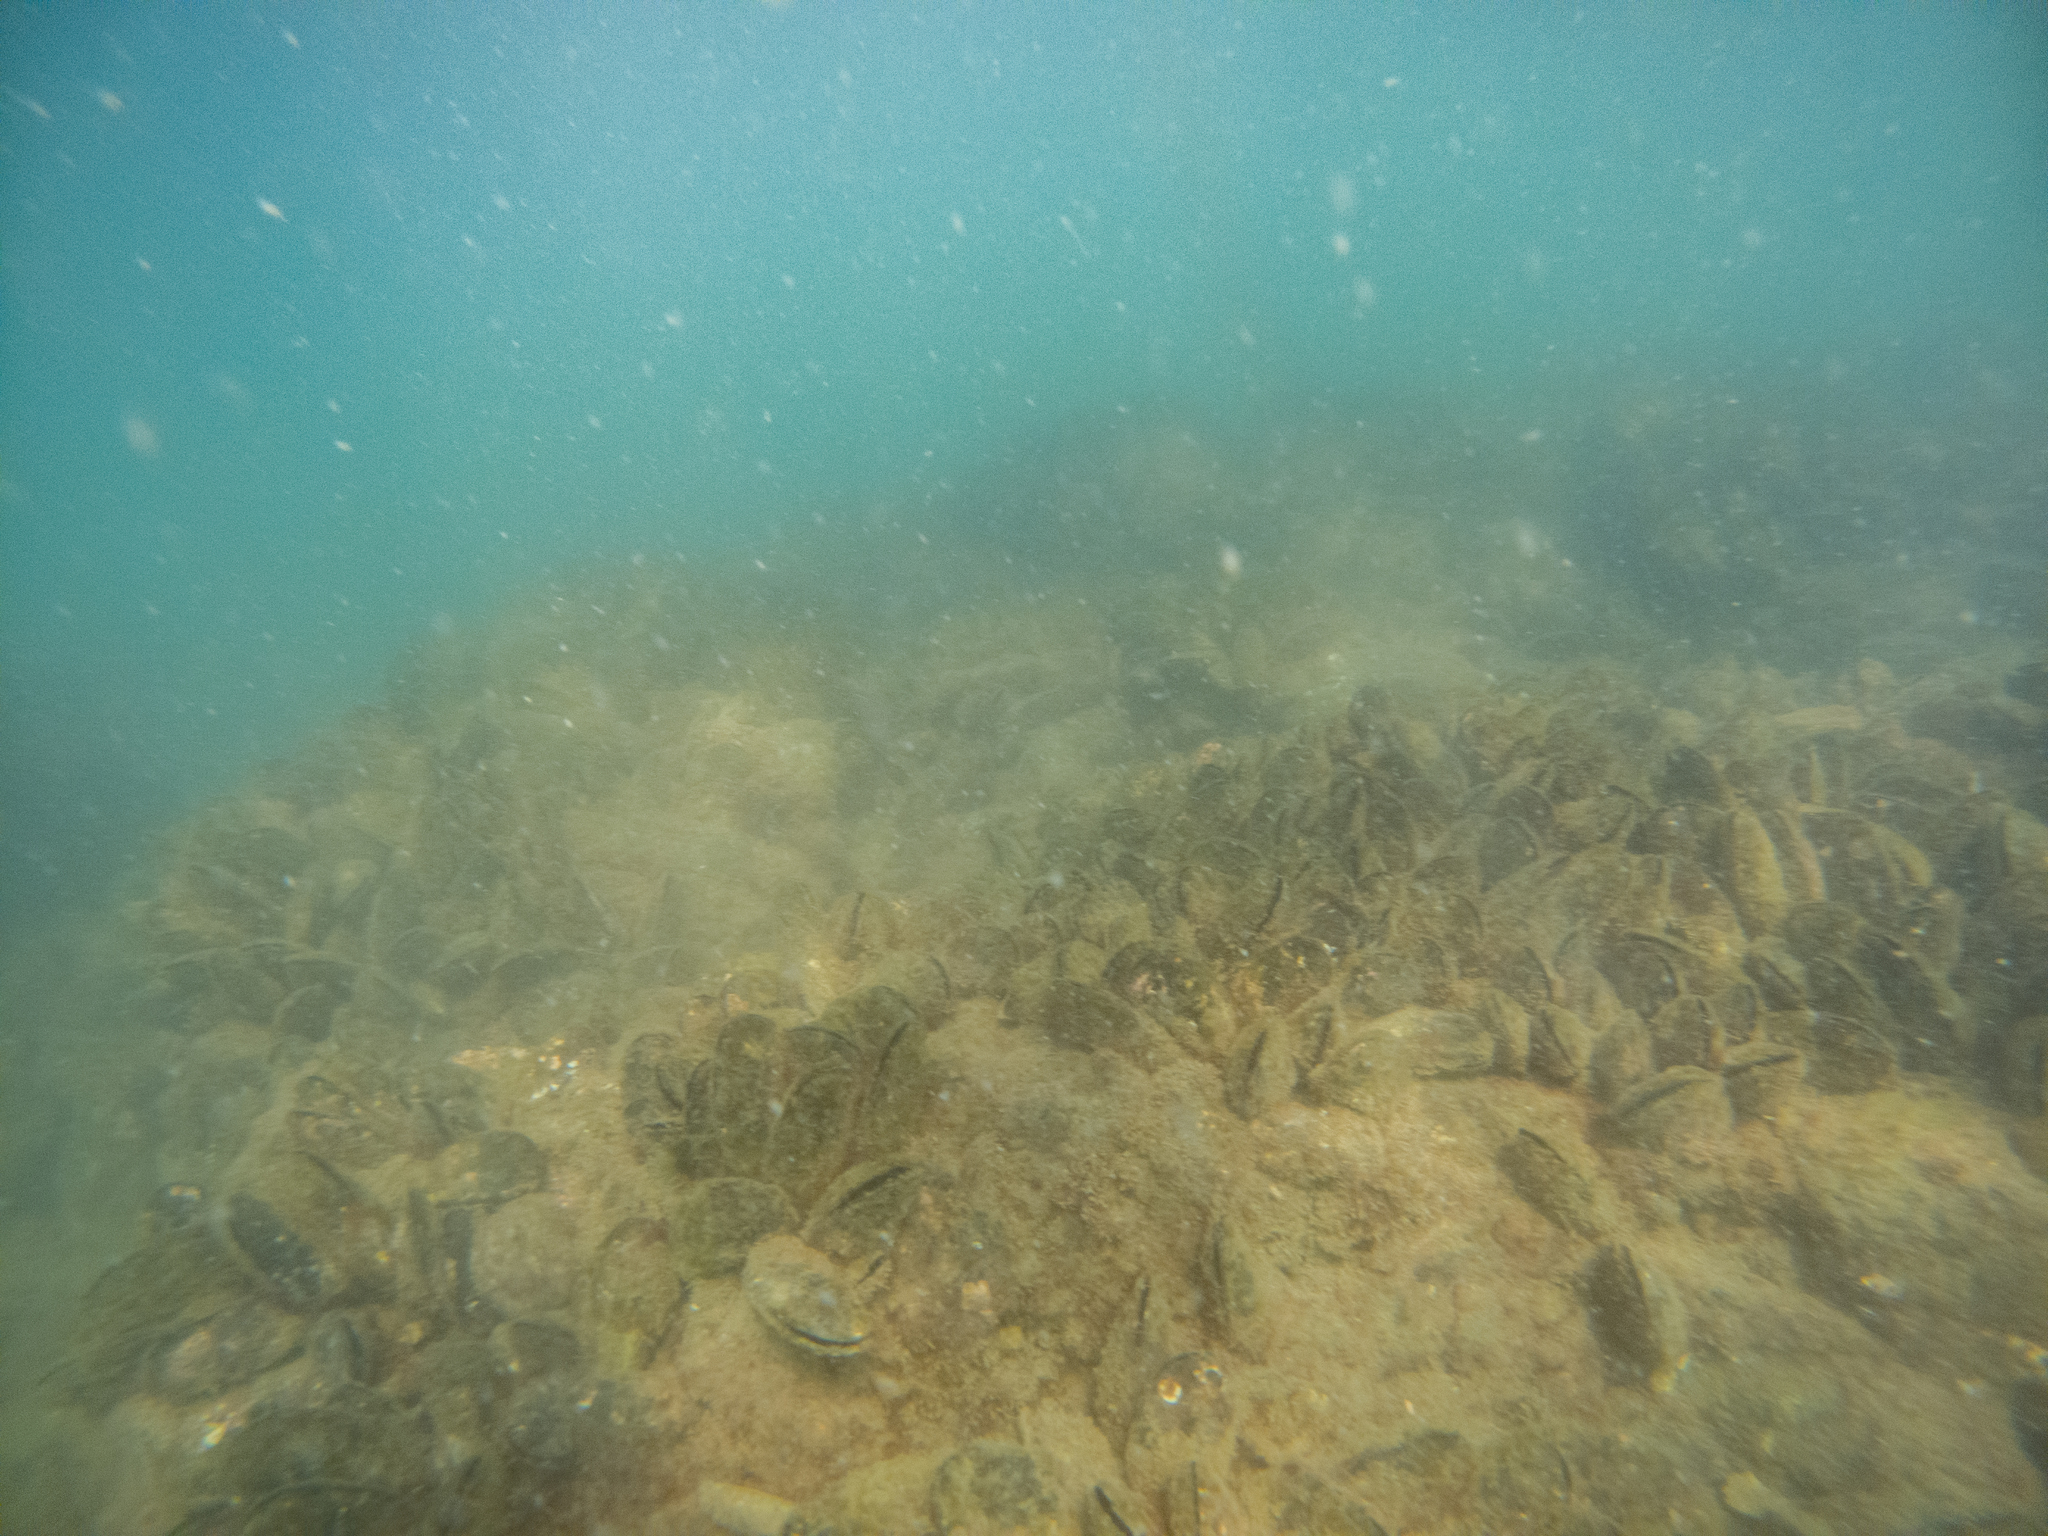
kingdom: Animalia
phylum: Mollusca
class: Bivalvia
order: Mytilida
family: Mytilidae
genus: Perna
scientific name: Perna canaliculus
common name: New zealand greenshelltm
